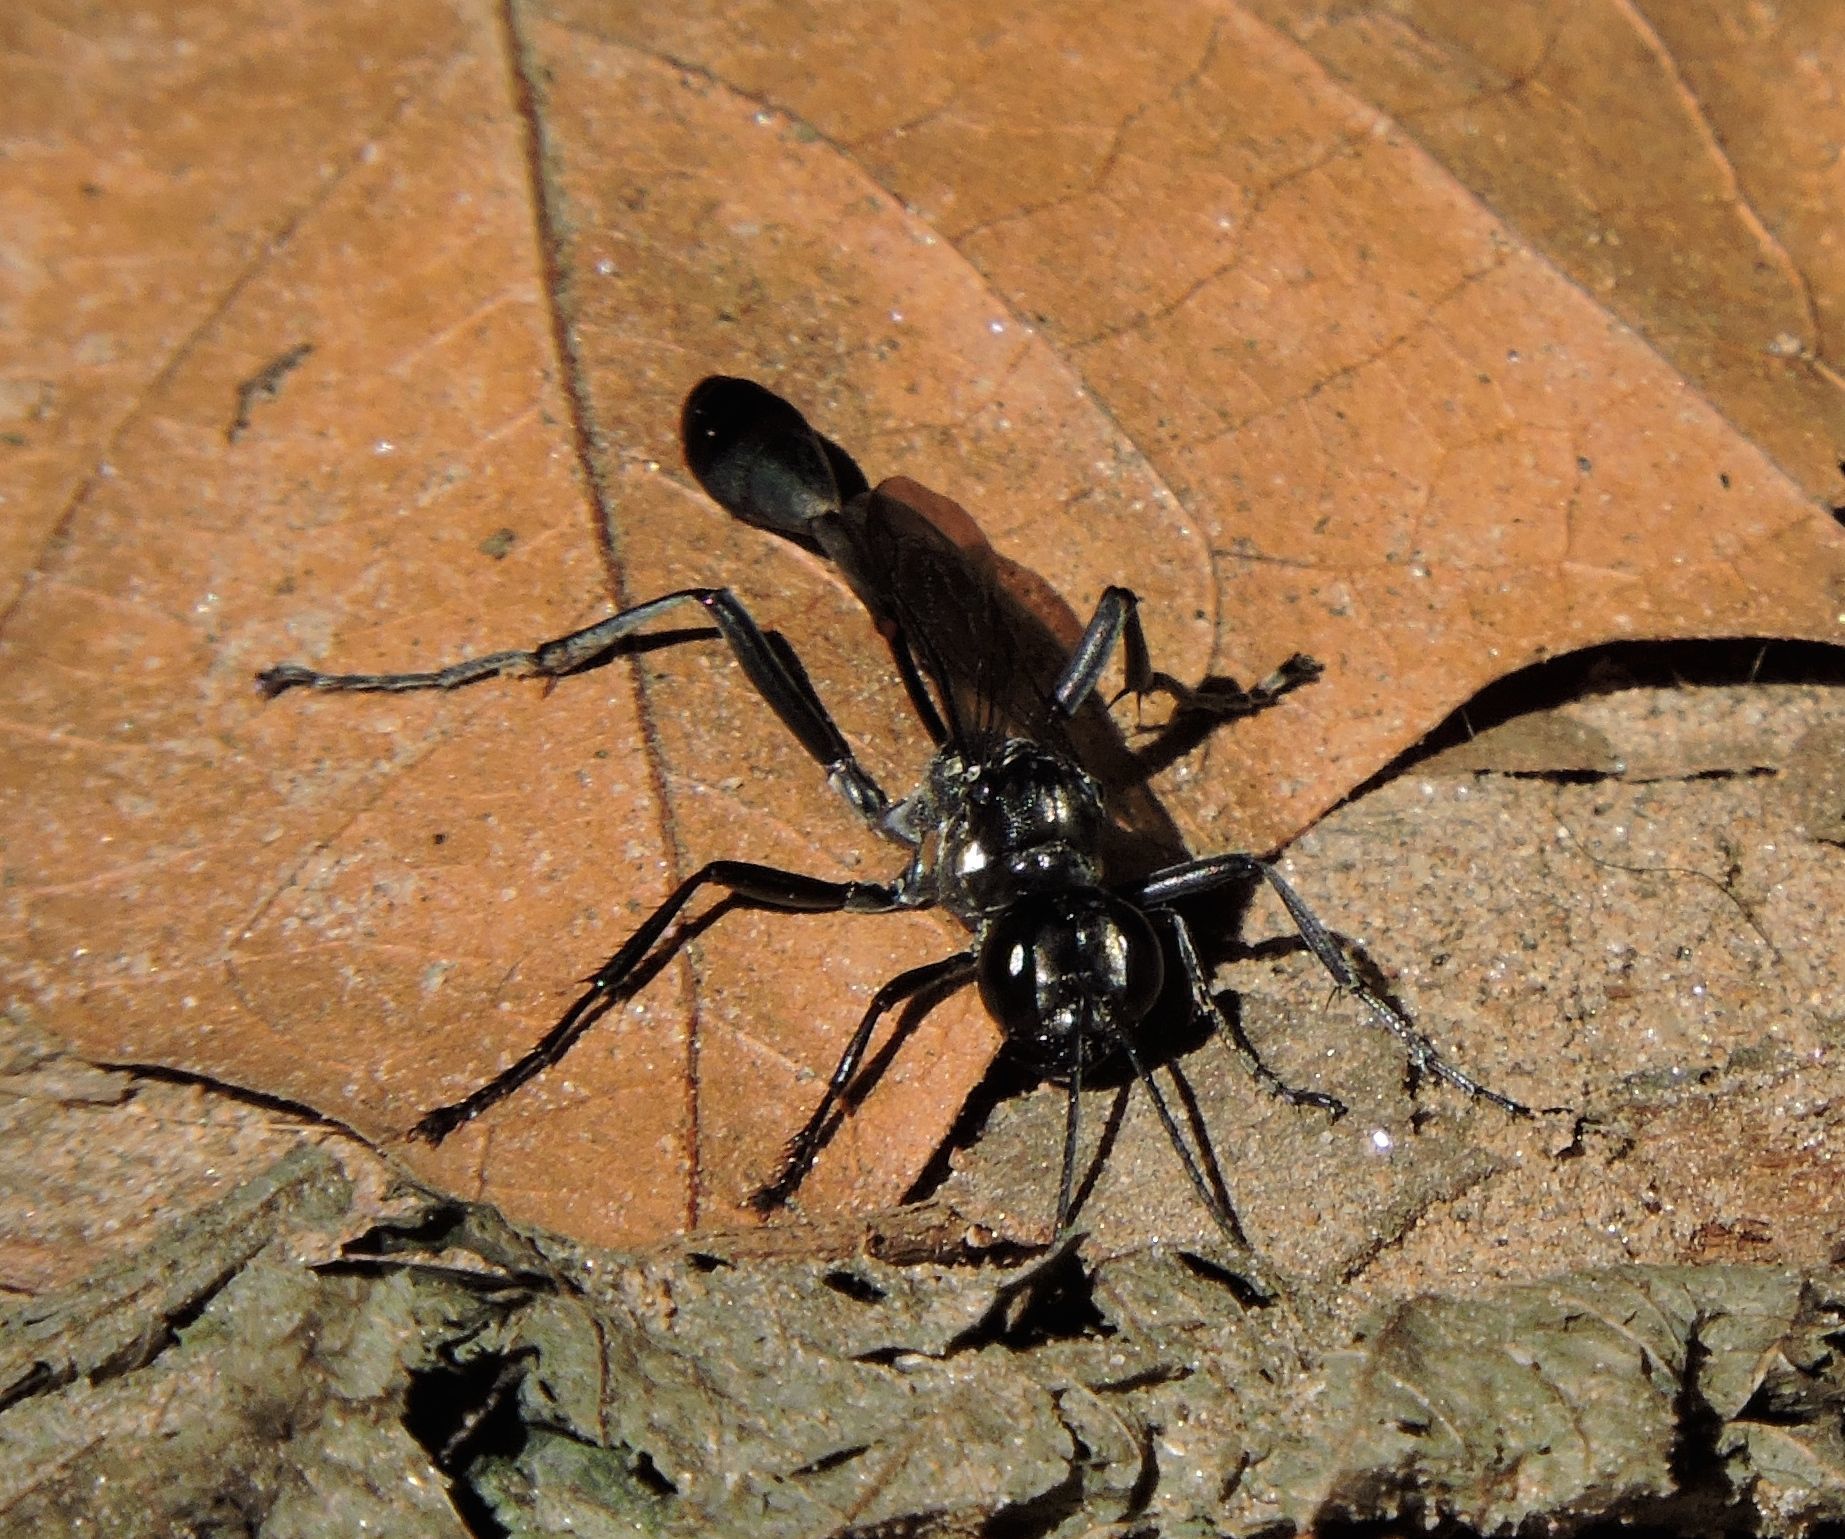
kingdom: Animalia
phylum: Arthropoda
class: Insecta
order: Hymenoptera
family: Sphecidae
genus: Eremnophila
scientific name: Eremnophila aureonotata
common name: Gold-marked thread-waisted wasp
